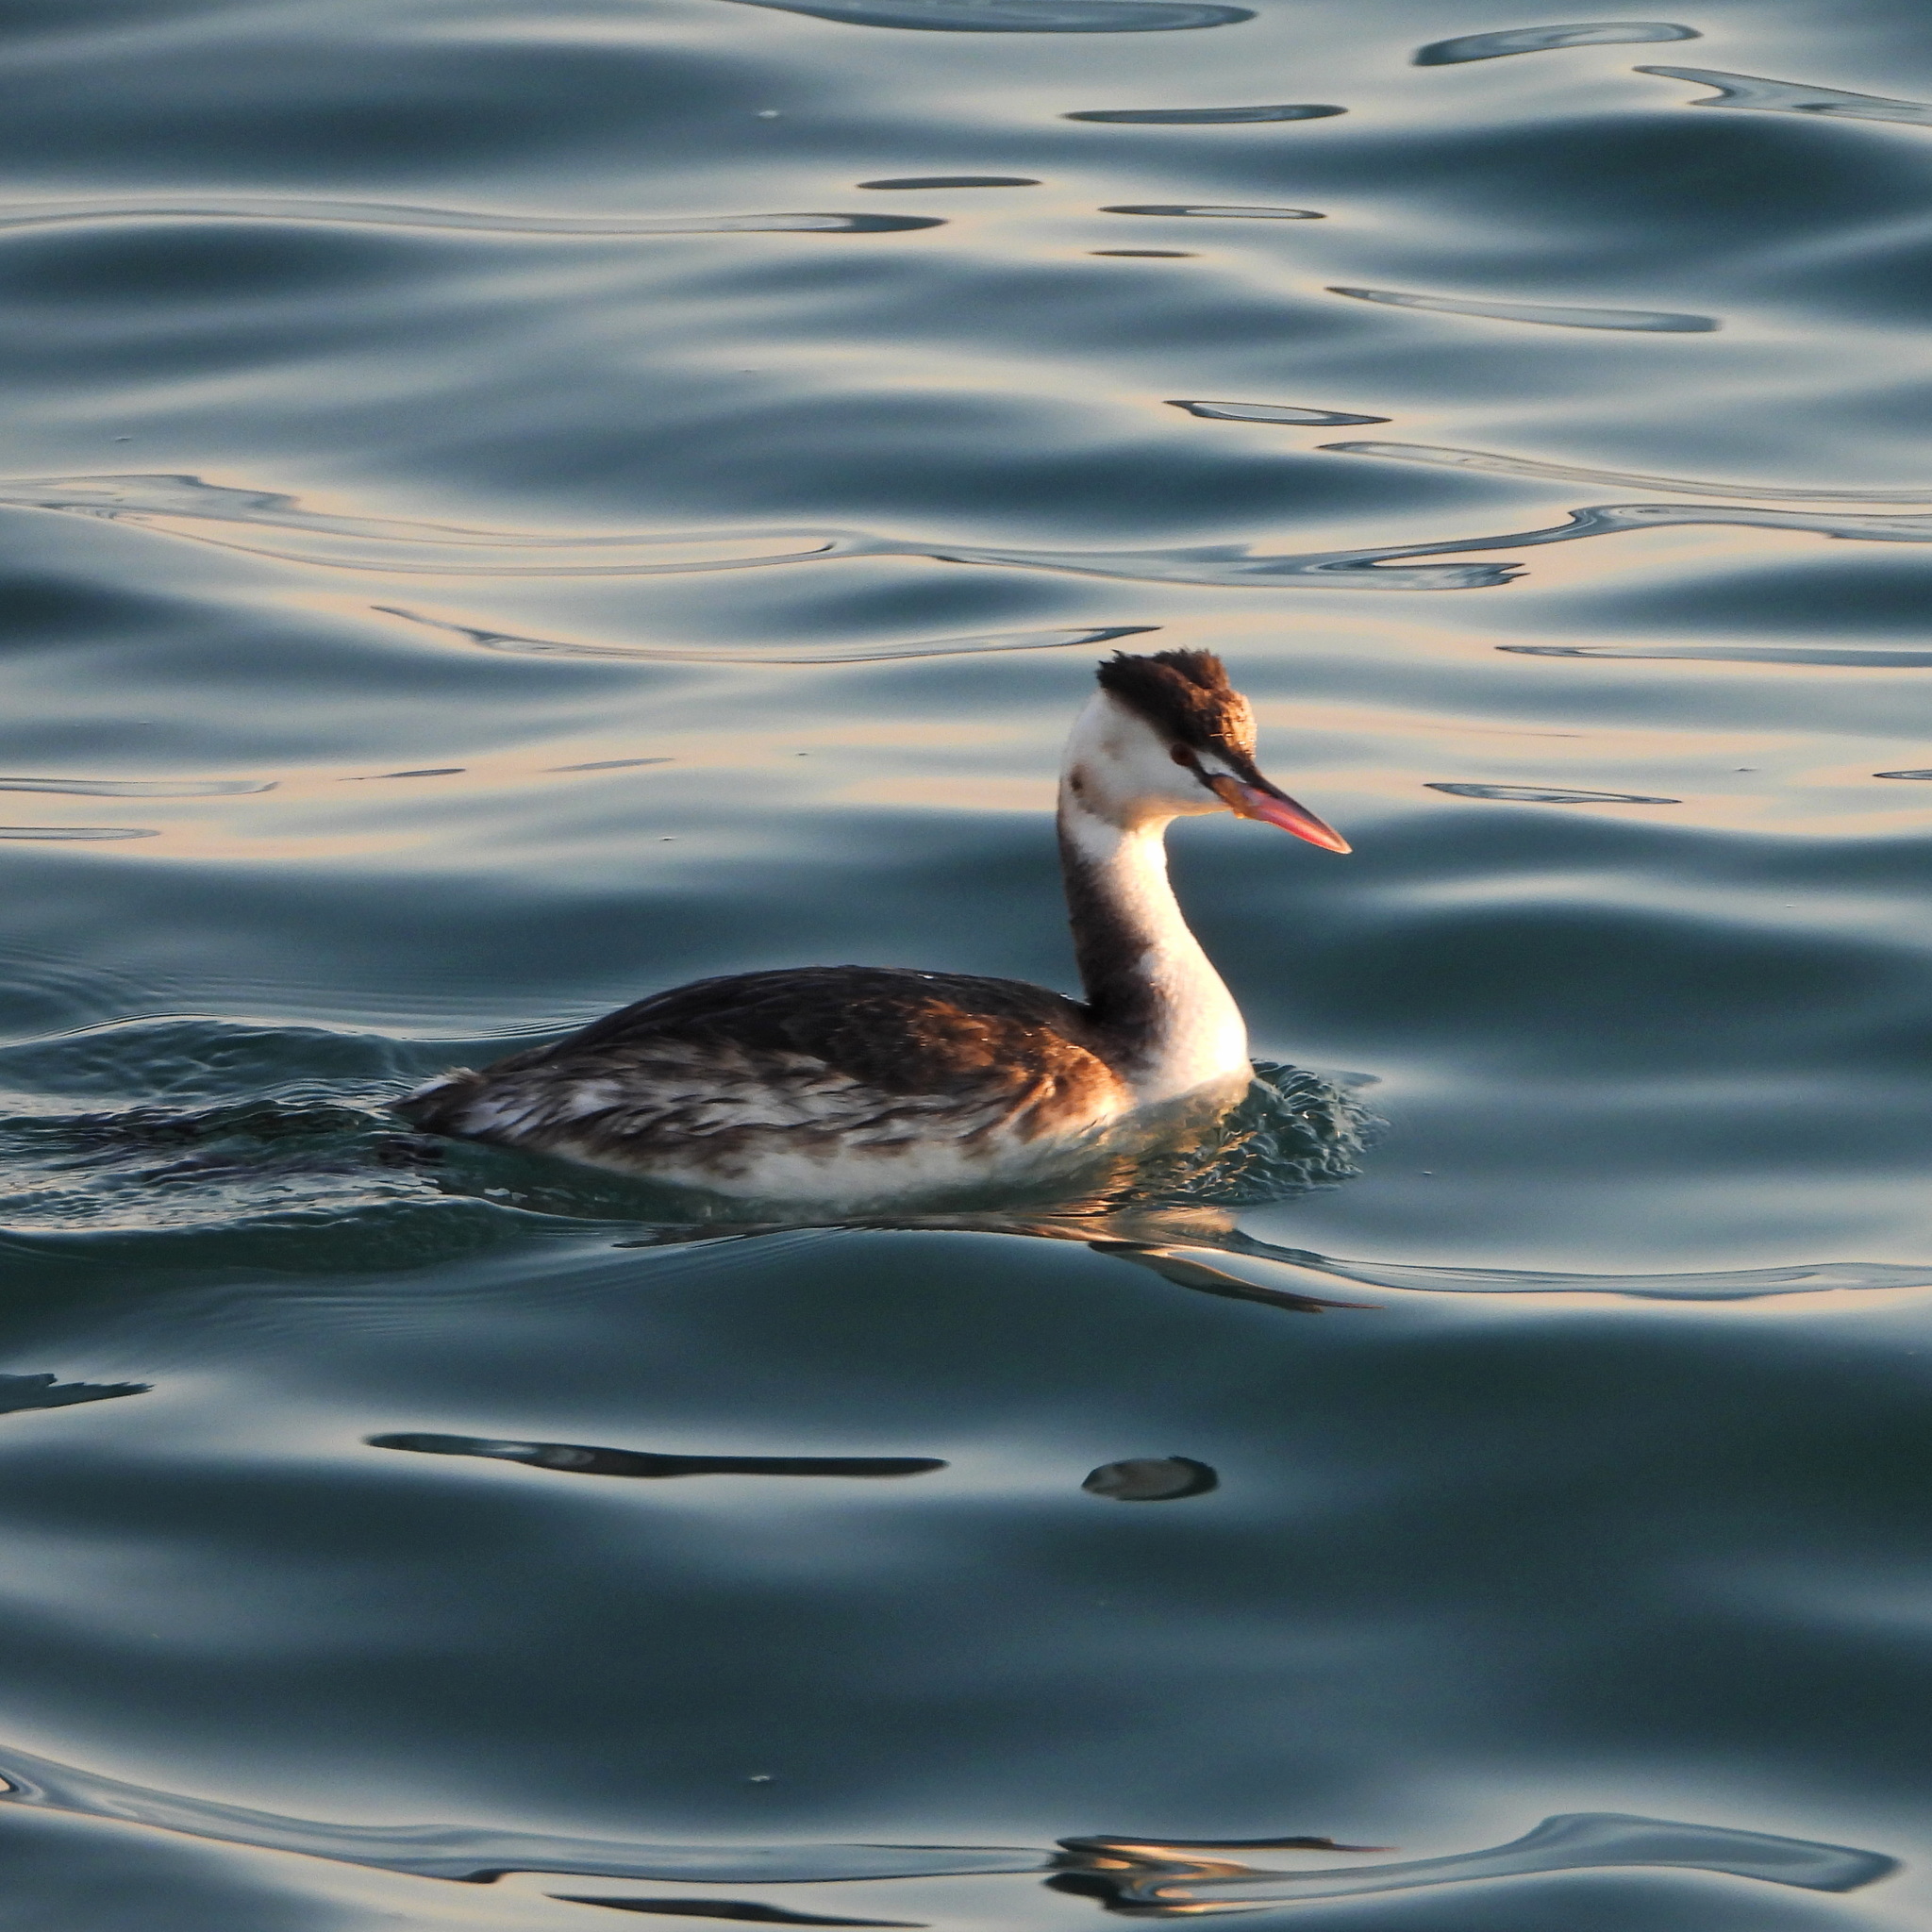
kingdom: Animalia
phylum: Chordata
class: Aves
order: Podicipediformes
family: Podicipedidae
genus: Podiceps
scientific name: Podiceps cristatus
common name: Great crested grebe
